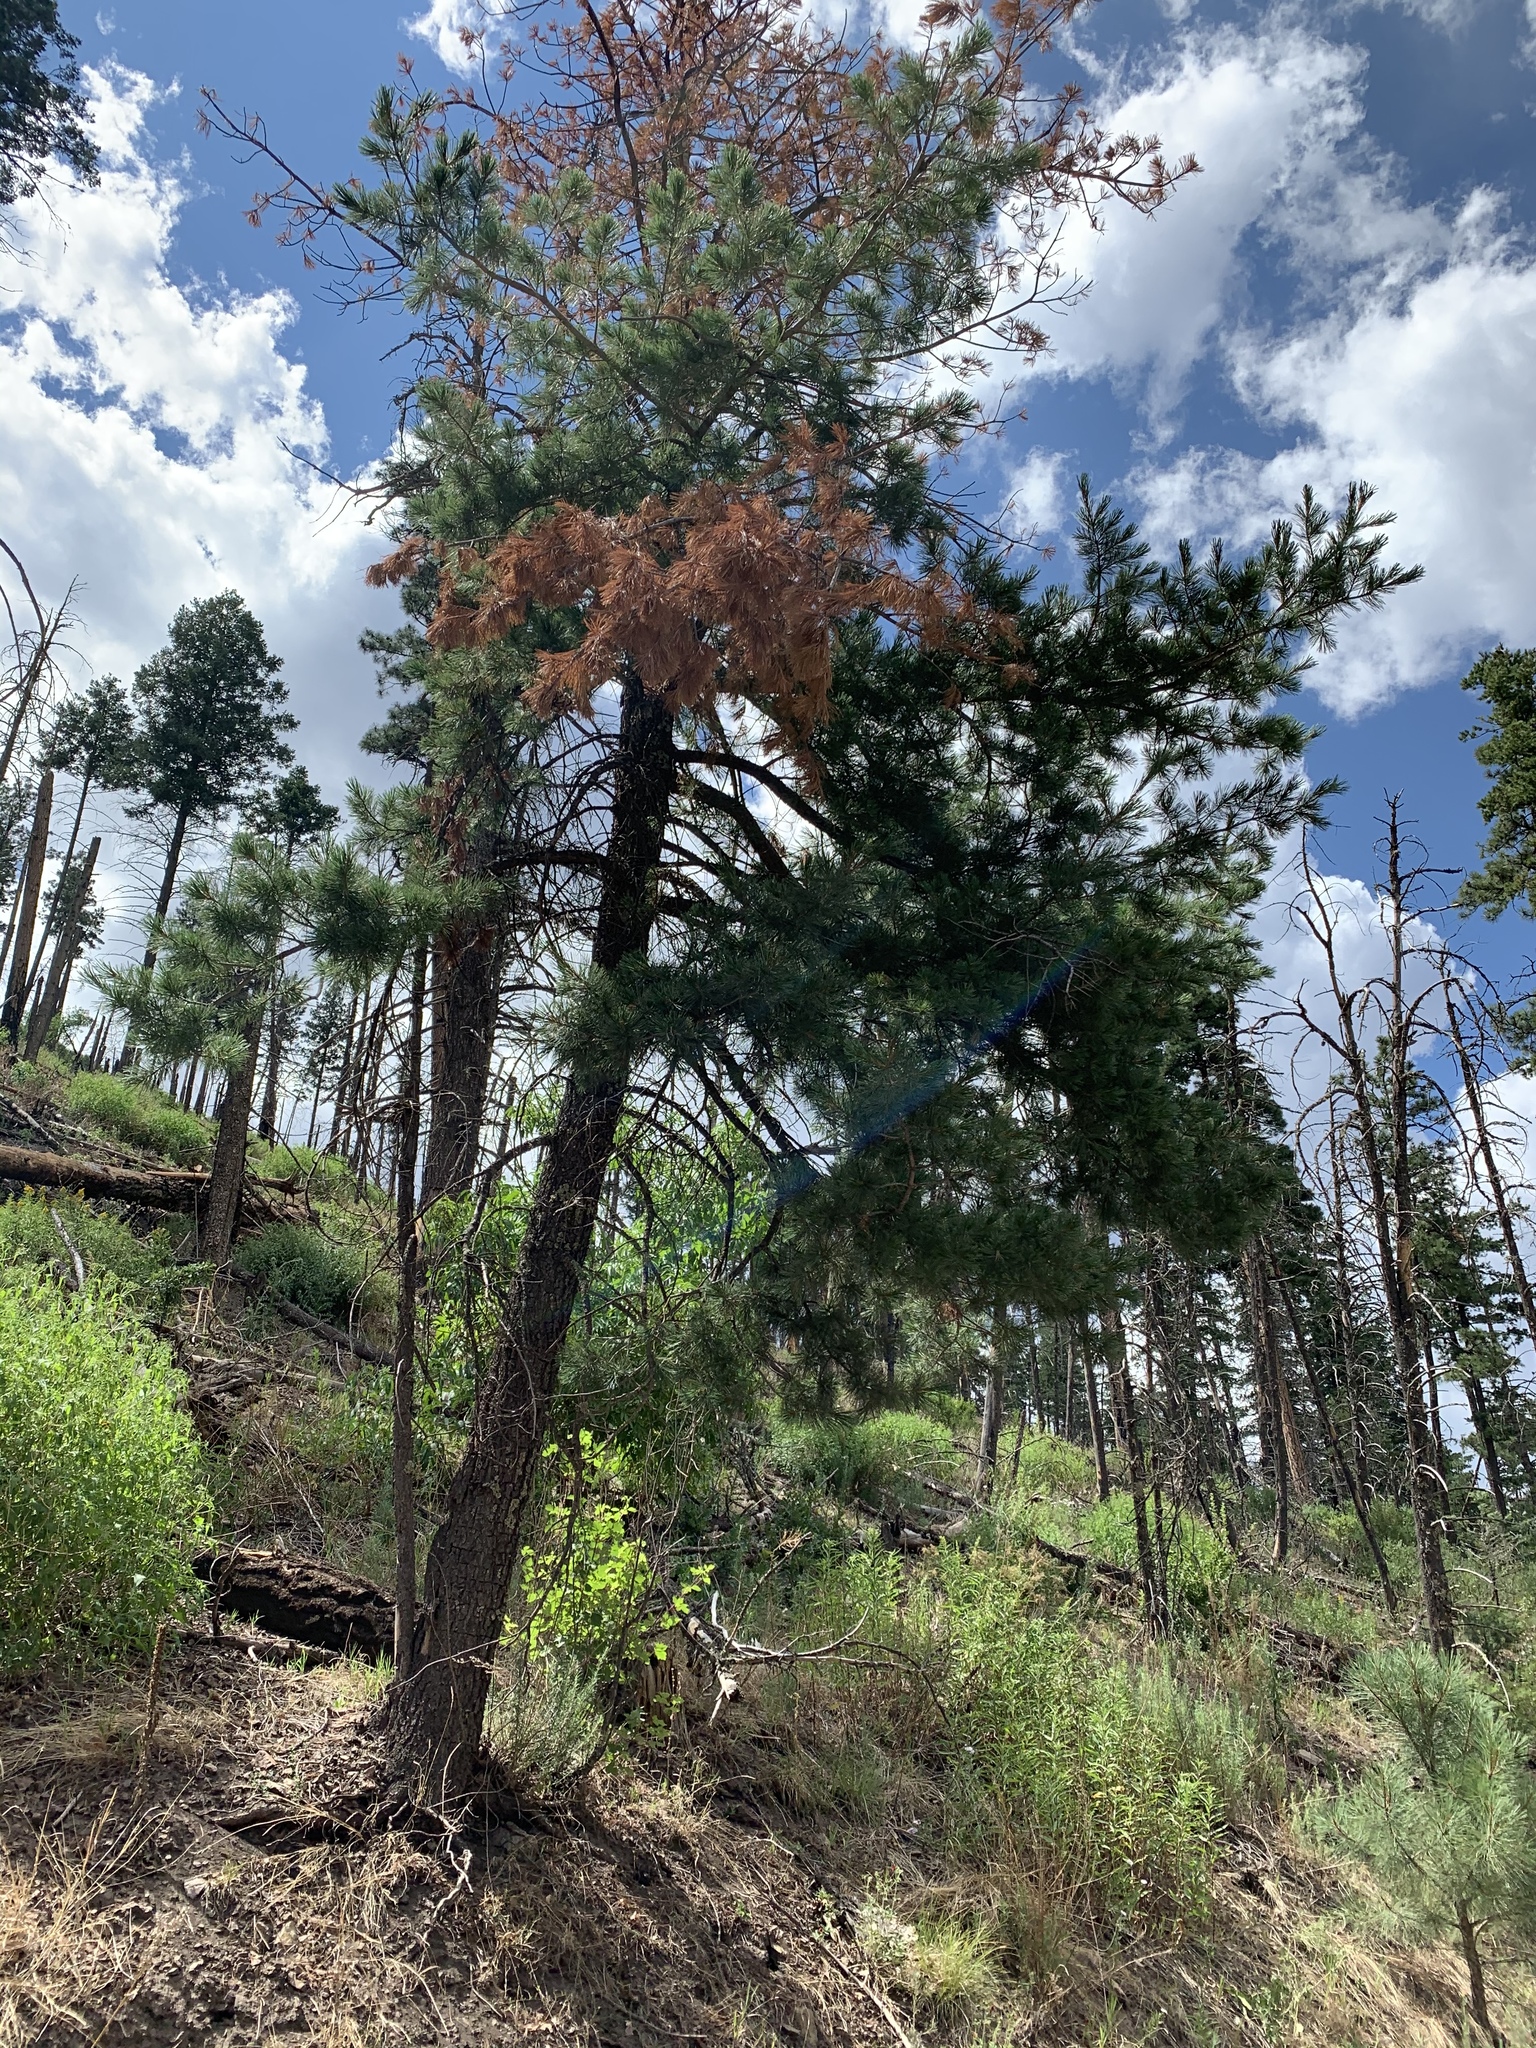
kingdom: Plantae
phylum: Tracheophyta
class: Pinopsida
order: Pinales
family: Pinaceae
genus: Pinus
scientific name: Pinus strobiformis
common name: Southwestern white pine
